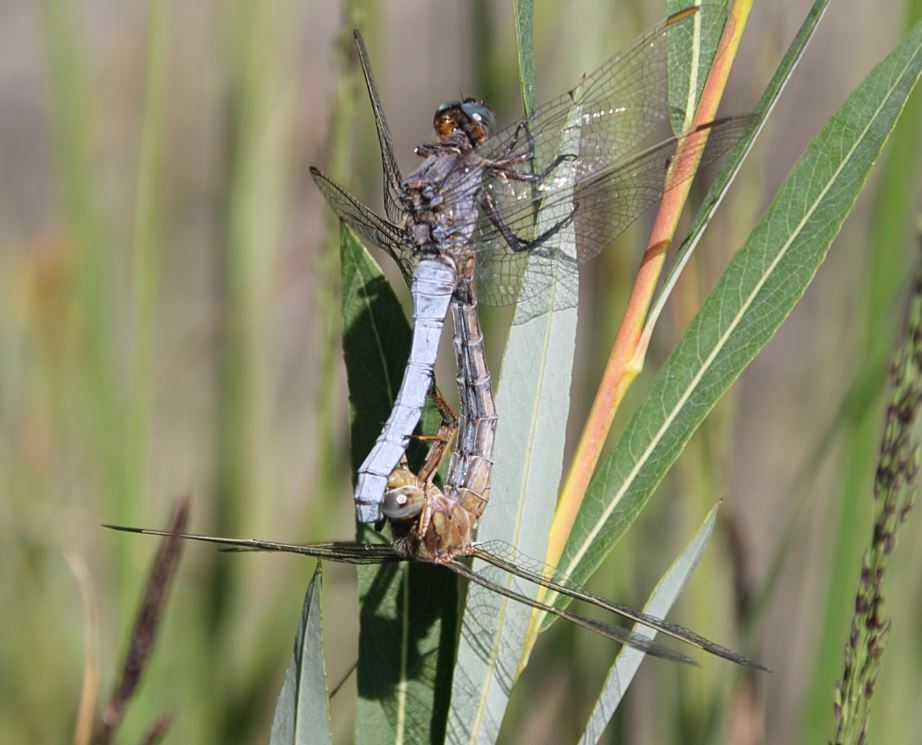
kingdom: Animalia
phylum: Arthropoda
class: Insecta
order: Odonata
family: Libellulidae
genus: Orthetrum
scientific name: Orthetrum coerulescens
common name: Keeled skimmer
